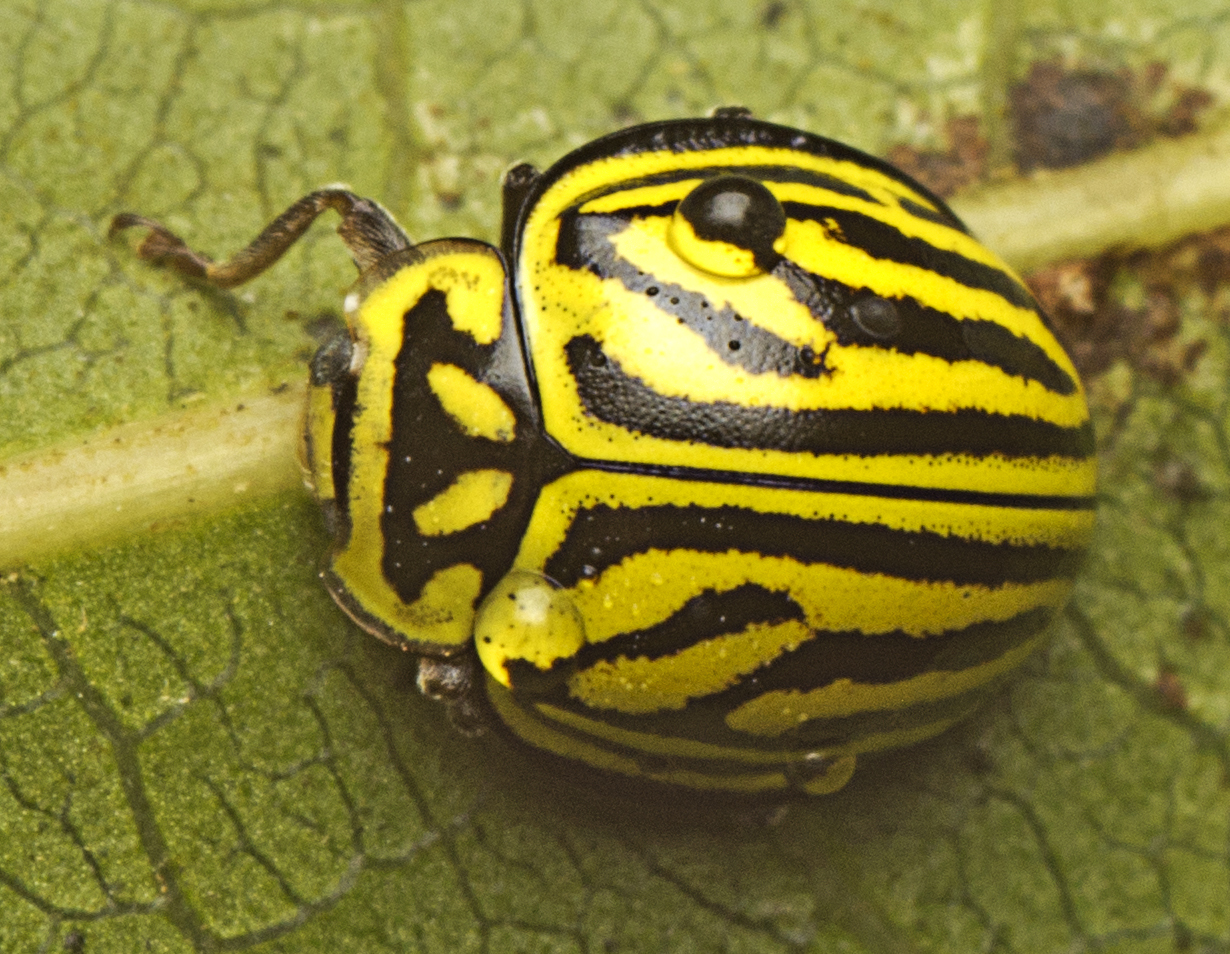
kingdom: Animalia
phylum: Arthropoda
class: Insecta
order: Coleoptera
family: Coccinellidae
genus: Archegleis
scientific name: Archegleis
